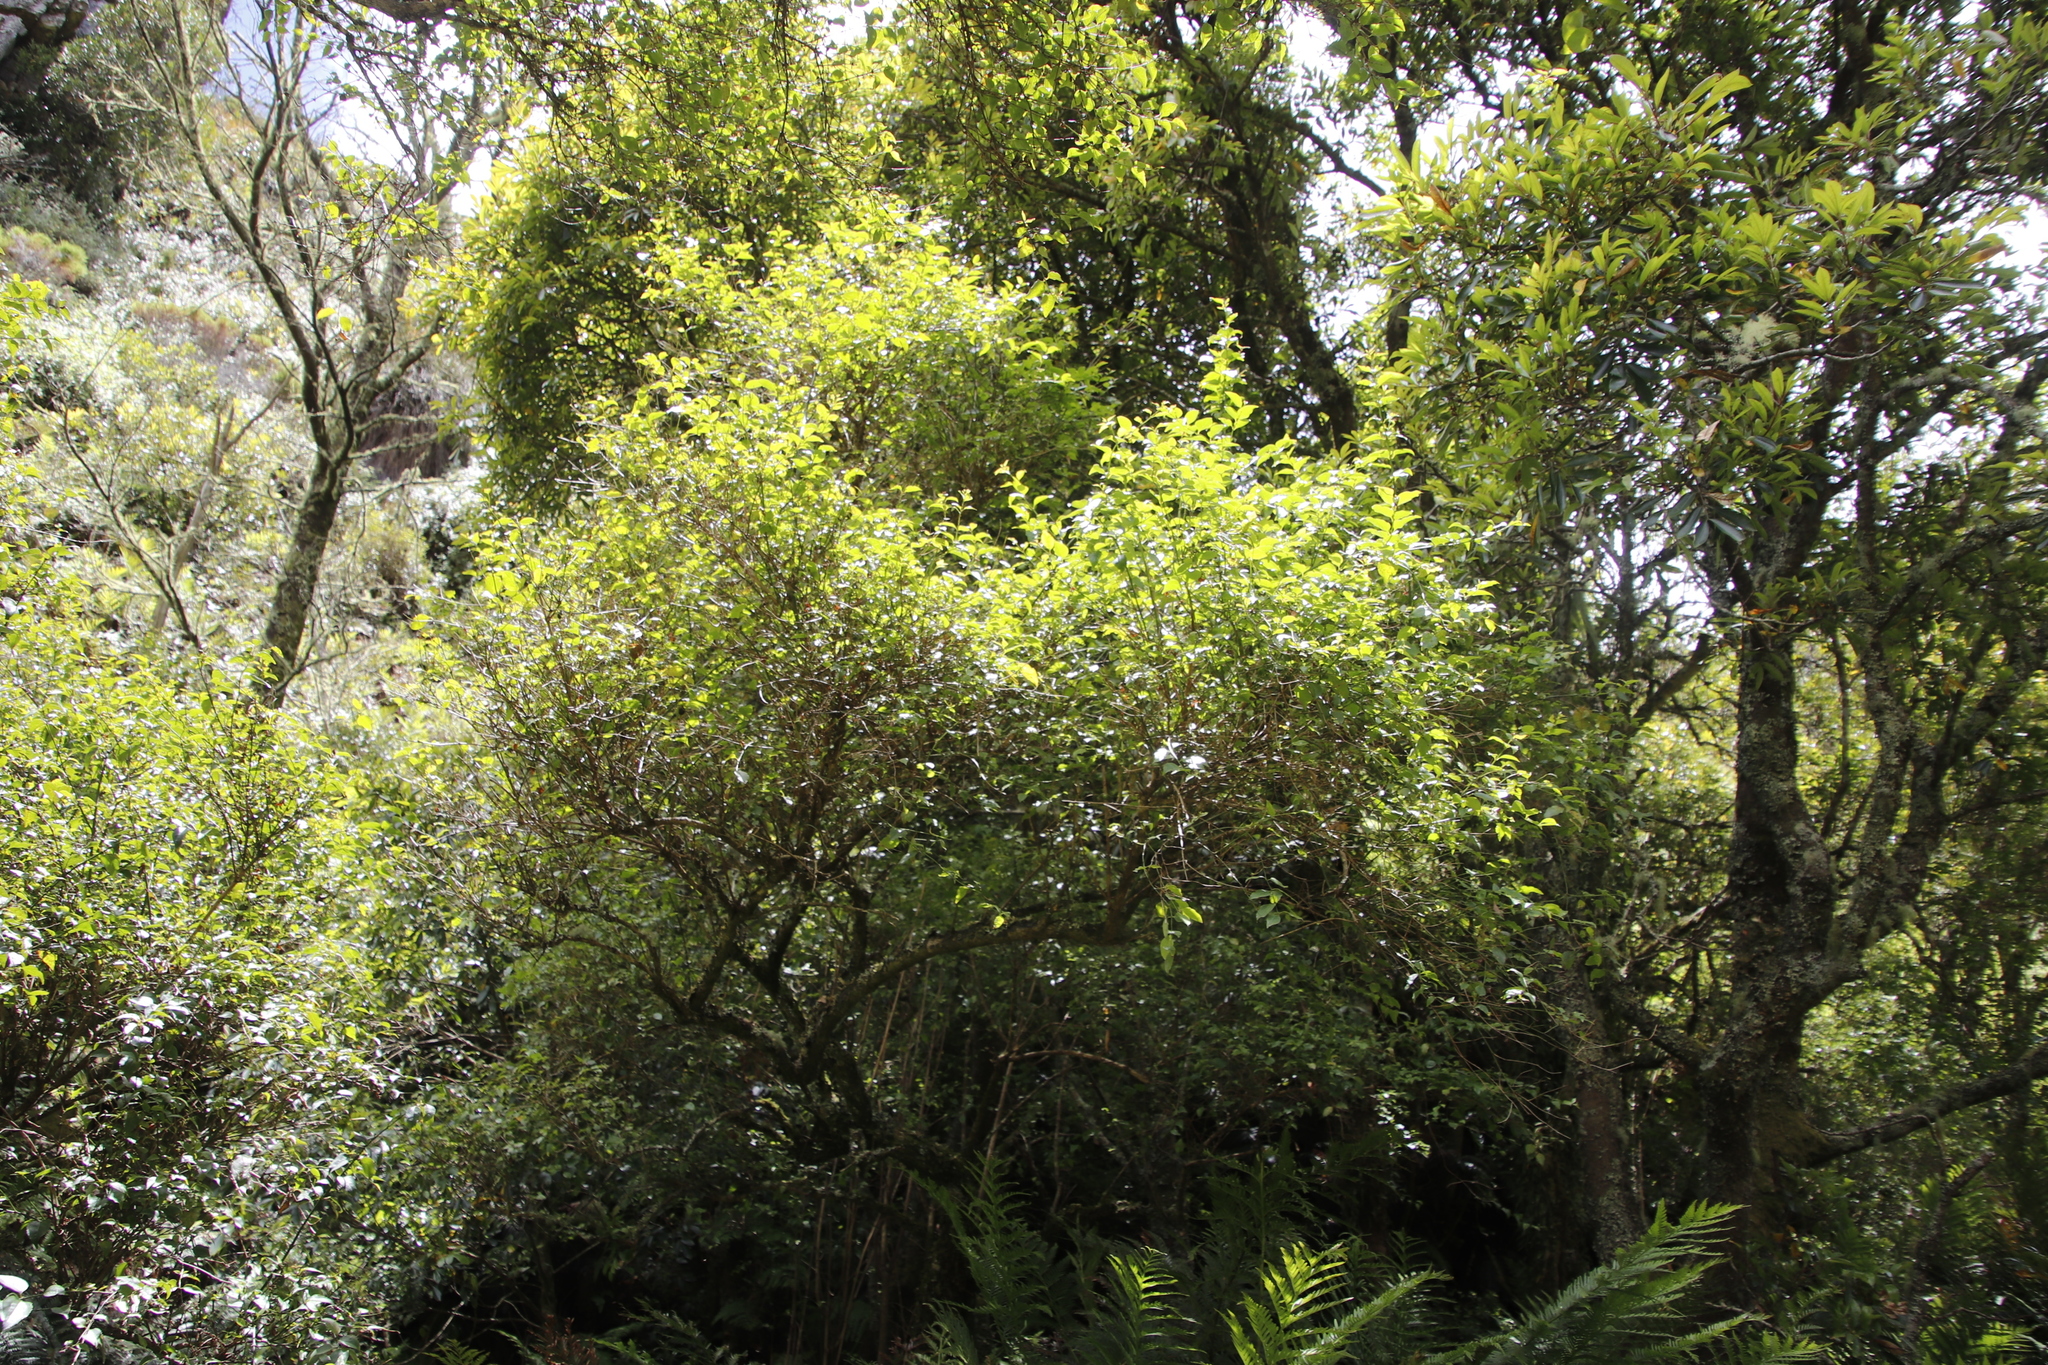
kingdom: Plantae
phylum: Tracheophyta
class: Magnoliopsida
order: Lamiales
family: Stilbaceae
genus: Halleria
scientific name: Halleria lucida
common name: Tree fuschia
